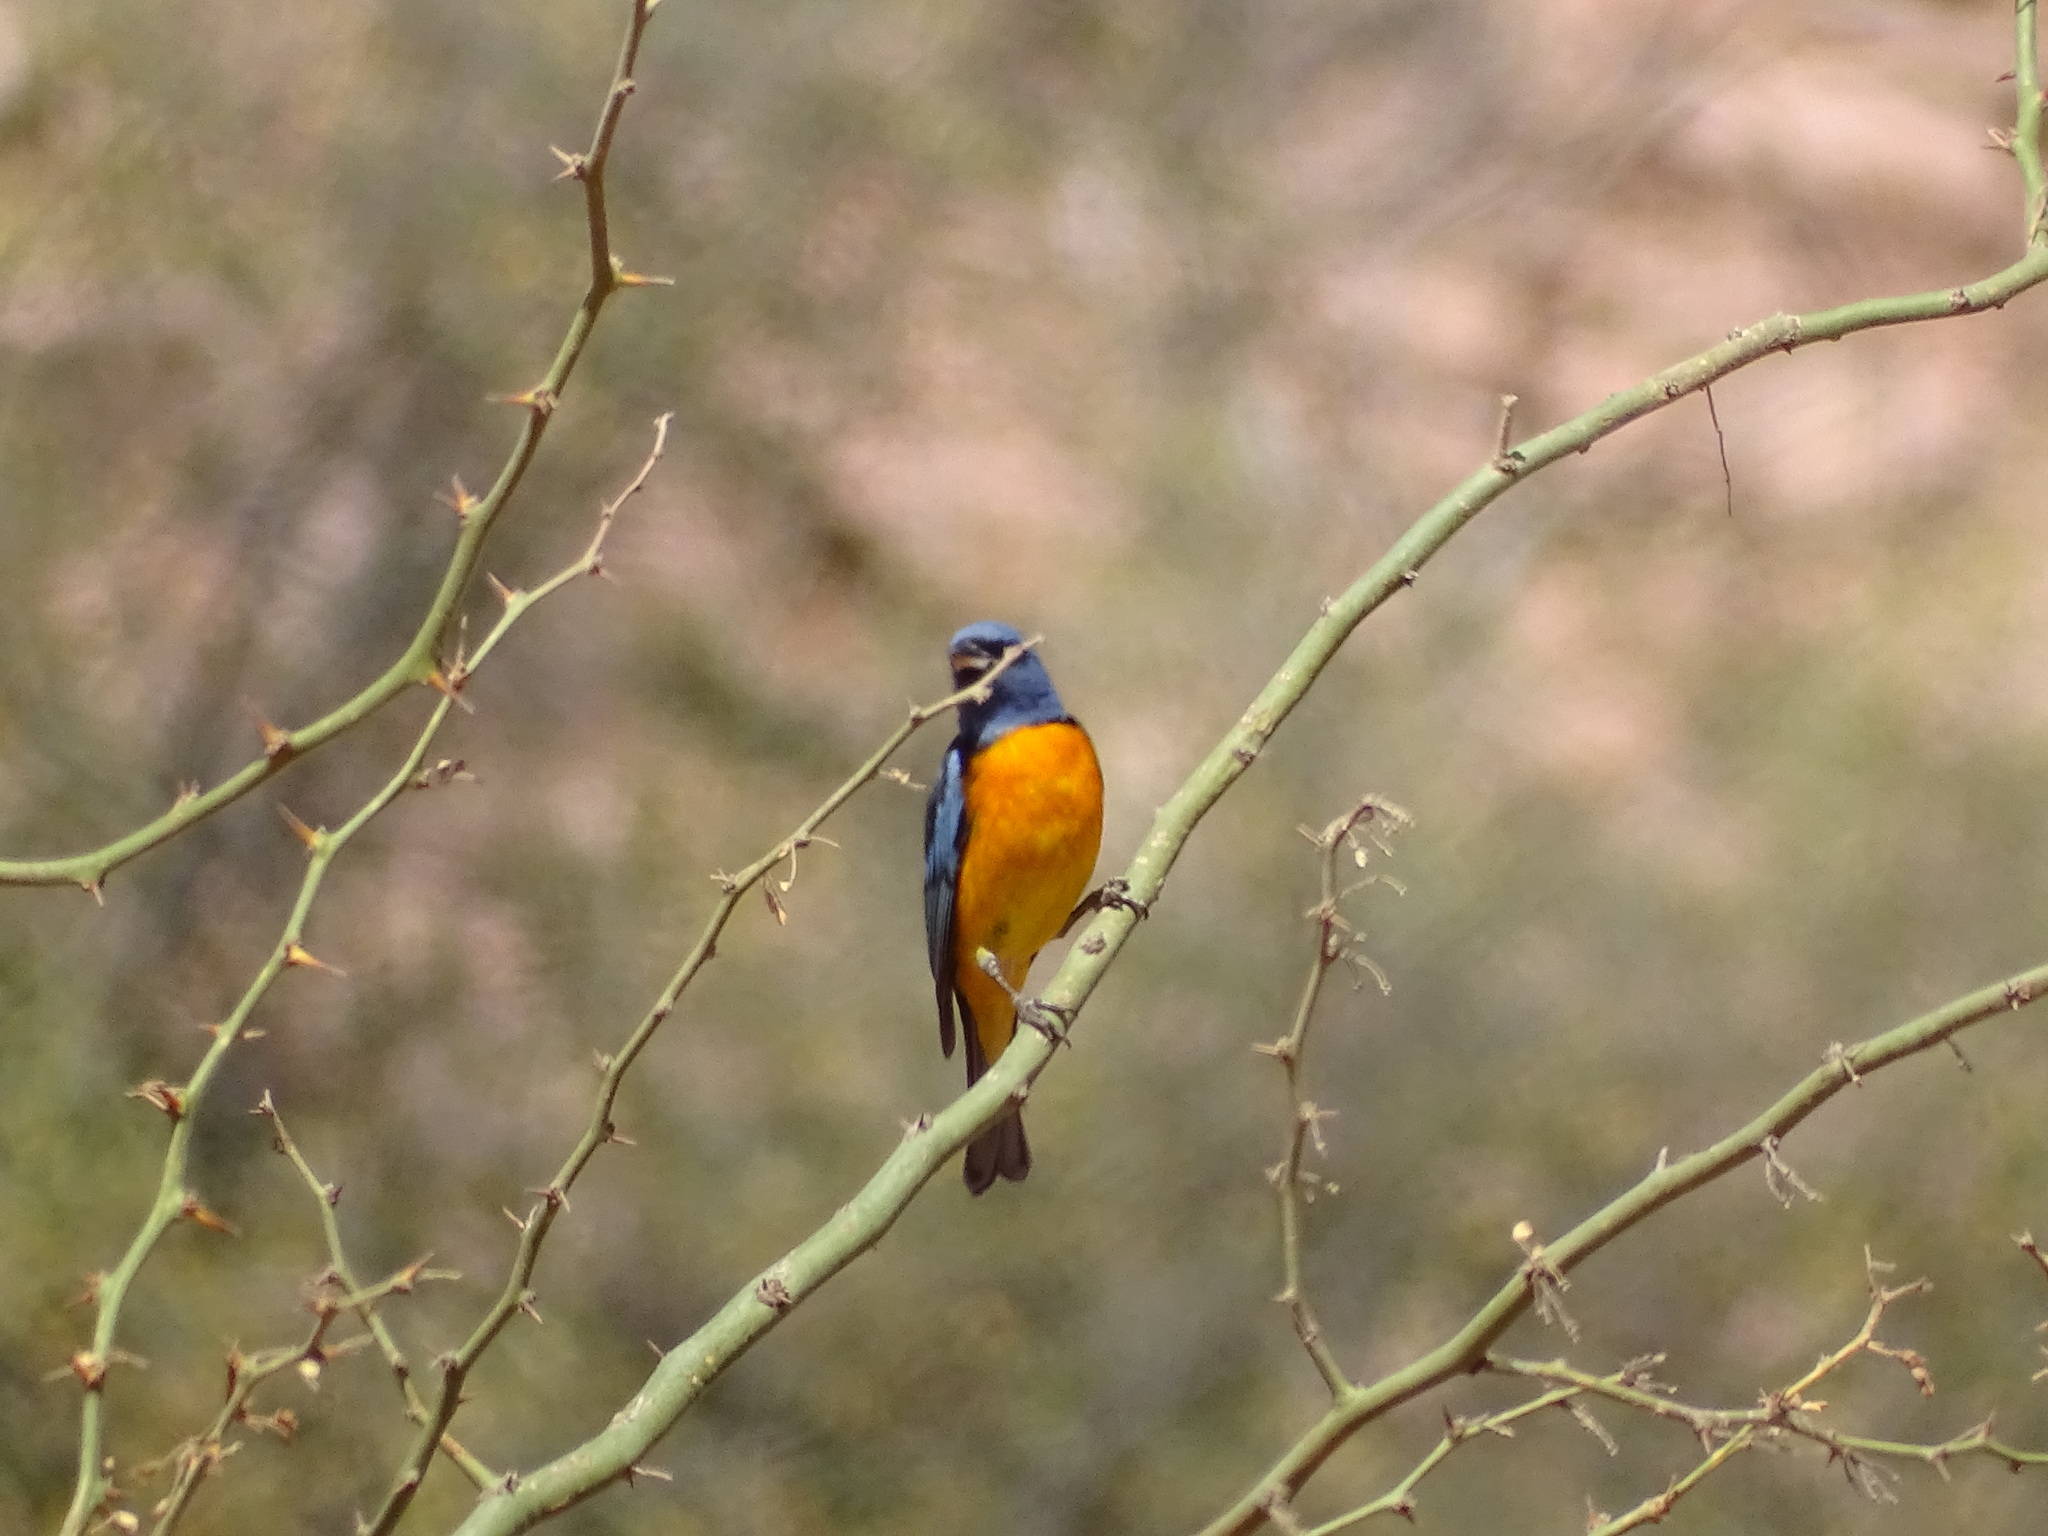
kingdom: Animalia
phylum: Chordata
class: Aves
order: Passeriformes
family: Thraupidae
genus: Rauenia
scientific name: Rauenia bonariensis
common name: Blue-and-yellow tanager
